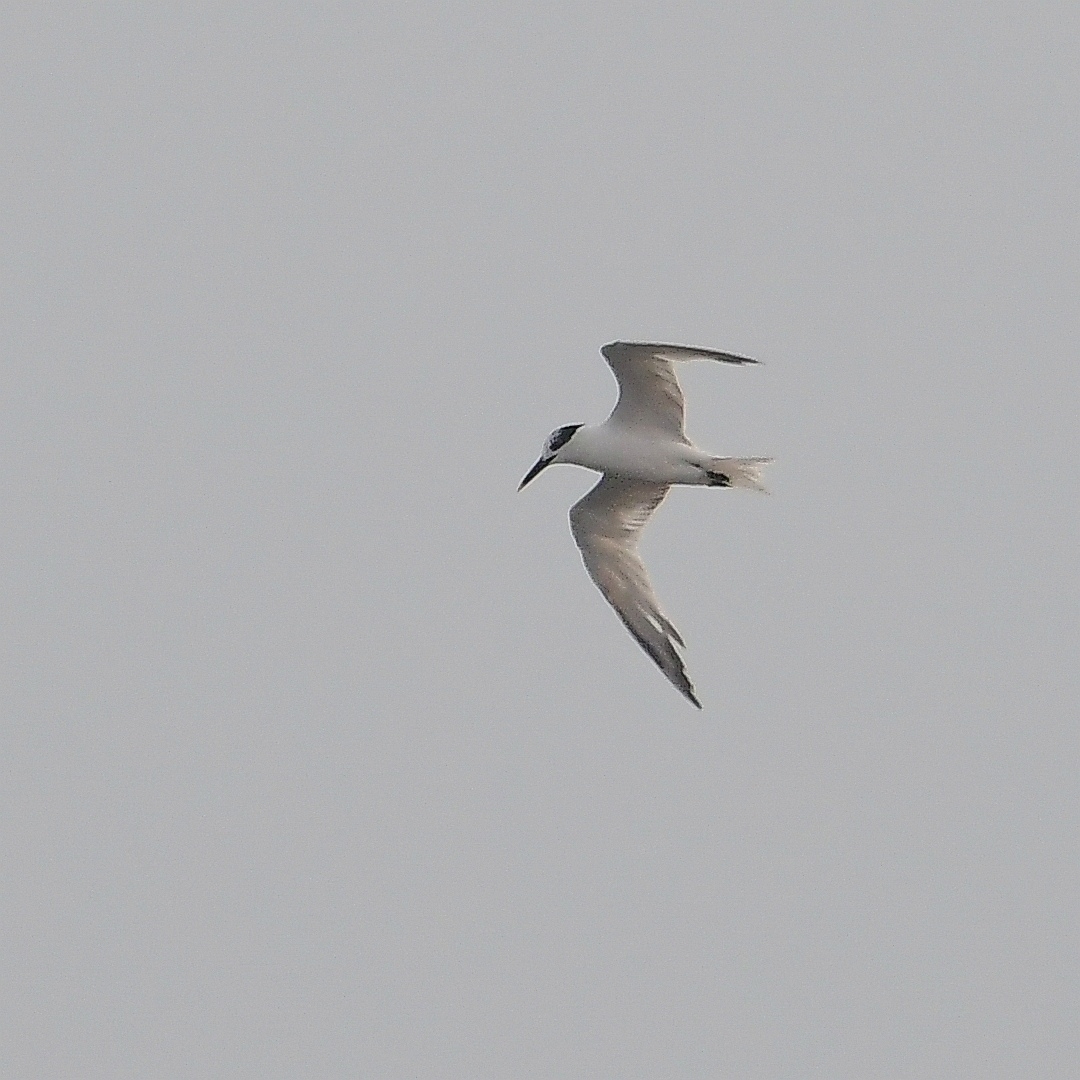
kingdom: Animalia
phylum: Chordata
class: Aves
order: Charadriiformes
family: Laridae
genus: Thalasseus
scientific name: Thalasseus sandvicensis
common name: Sandwich tern
